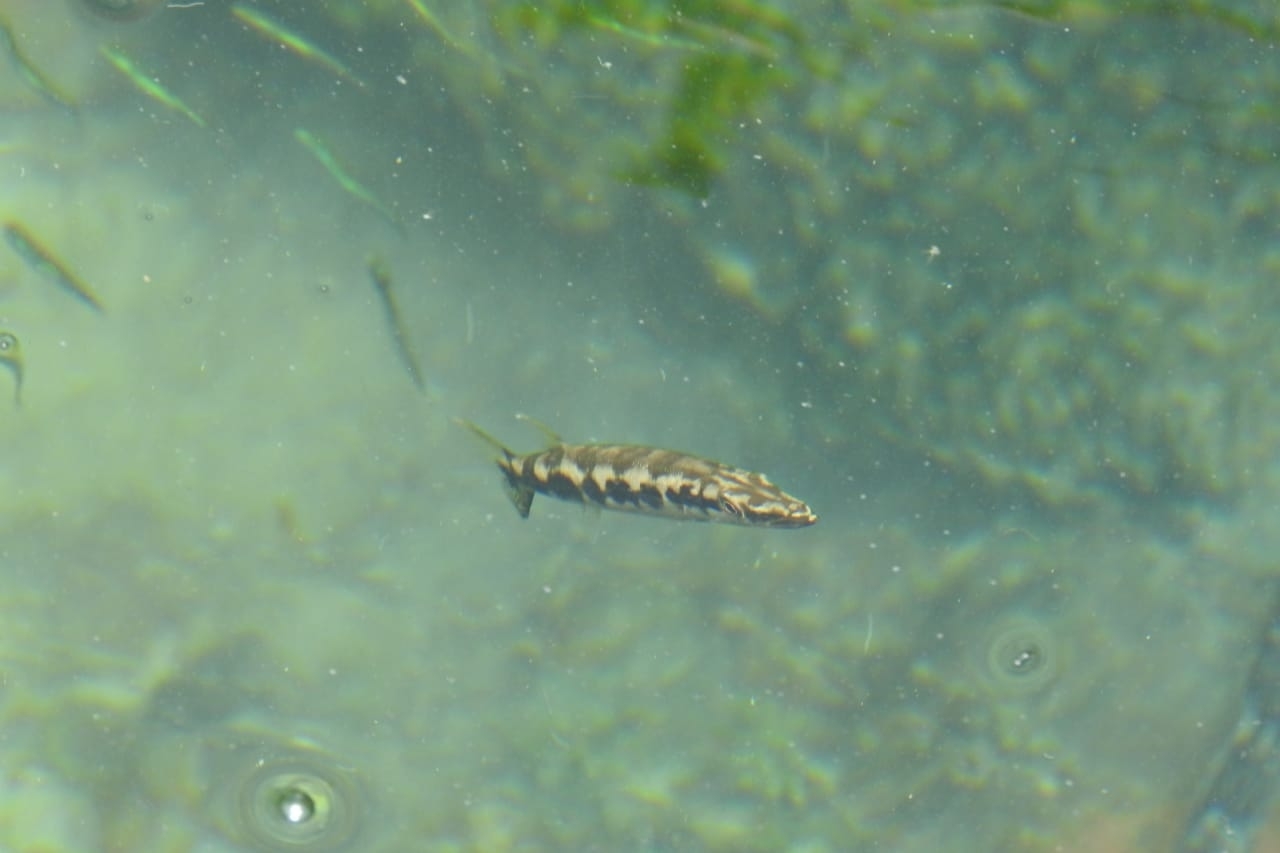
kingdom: Animalia
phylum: Chordata
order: Perciformes
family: Sphyraenidae
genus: Sphyraena
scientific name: Sphyraena barracuda
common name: Great barracuda
